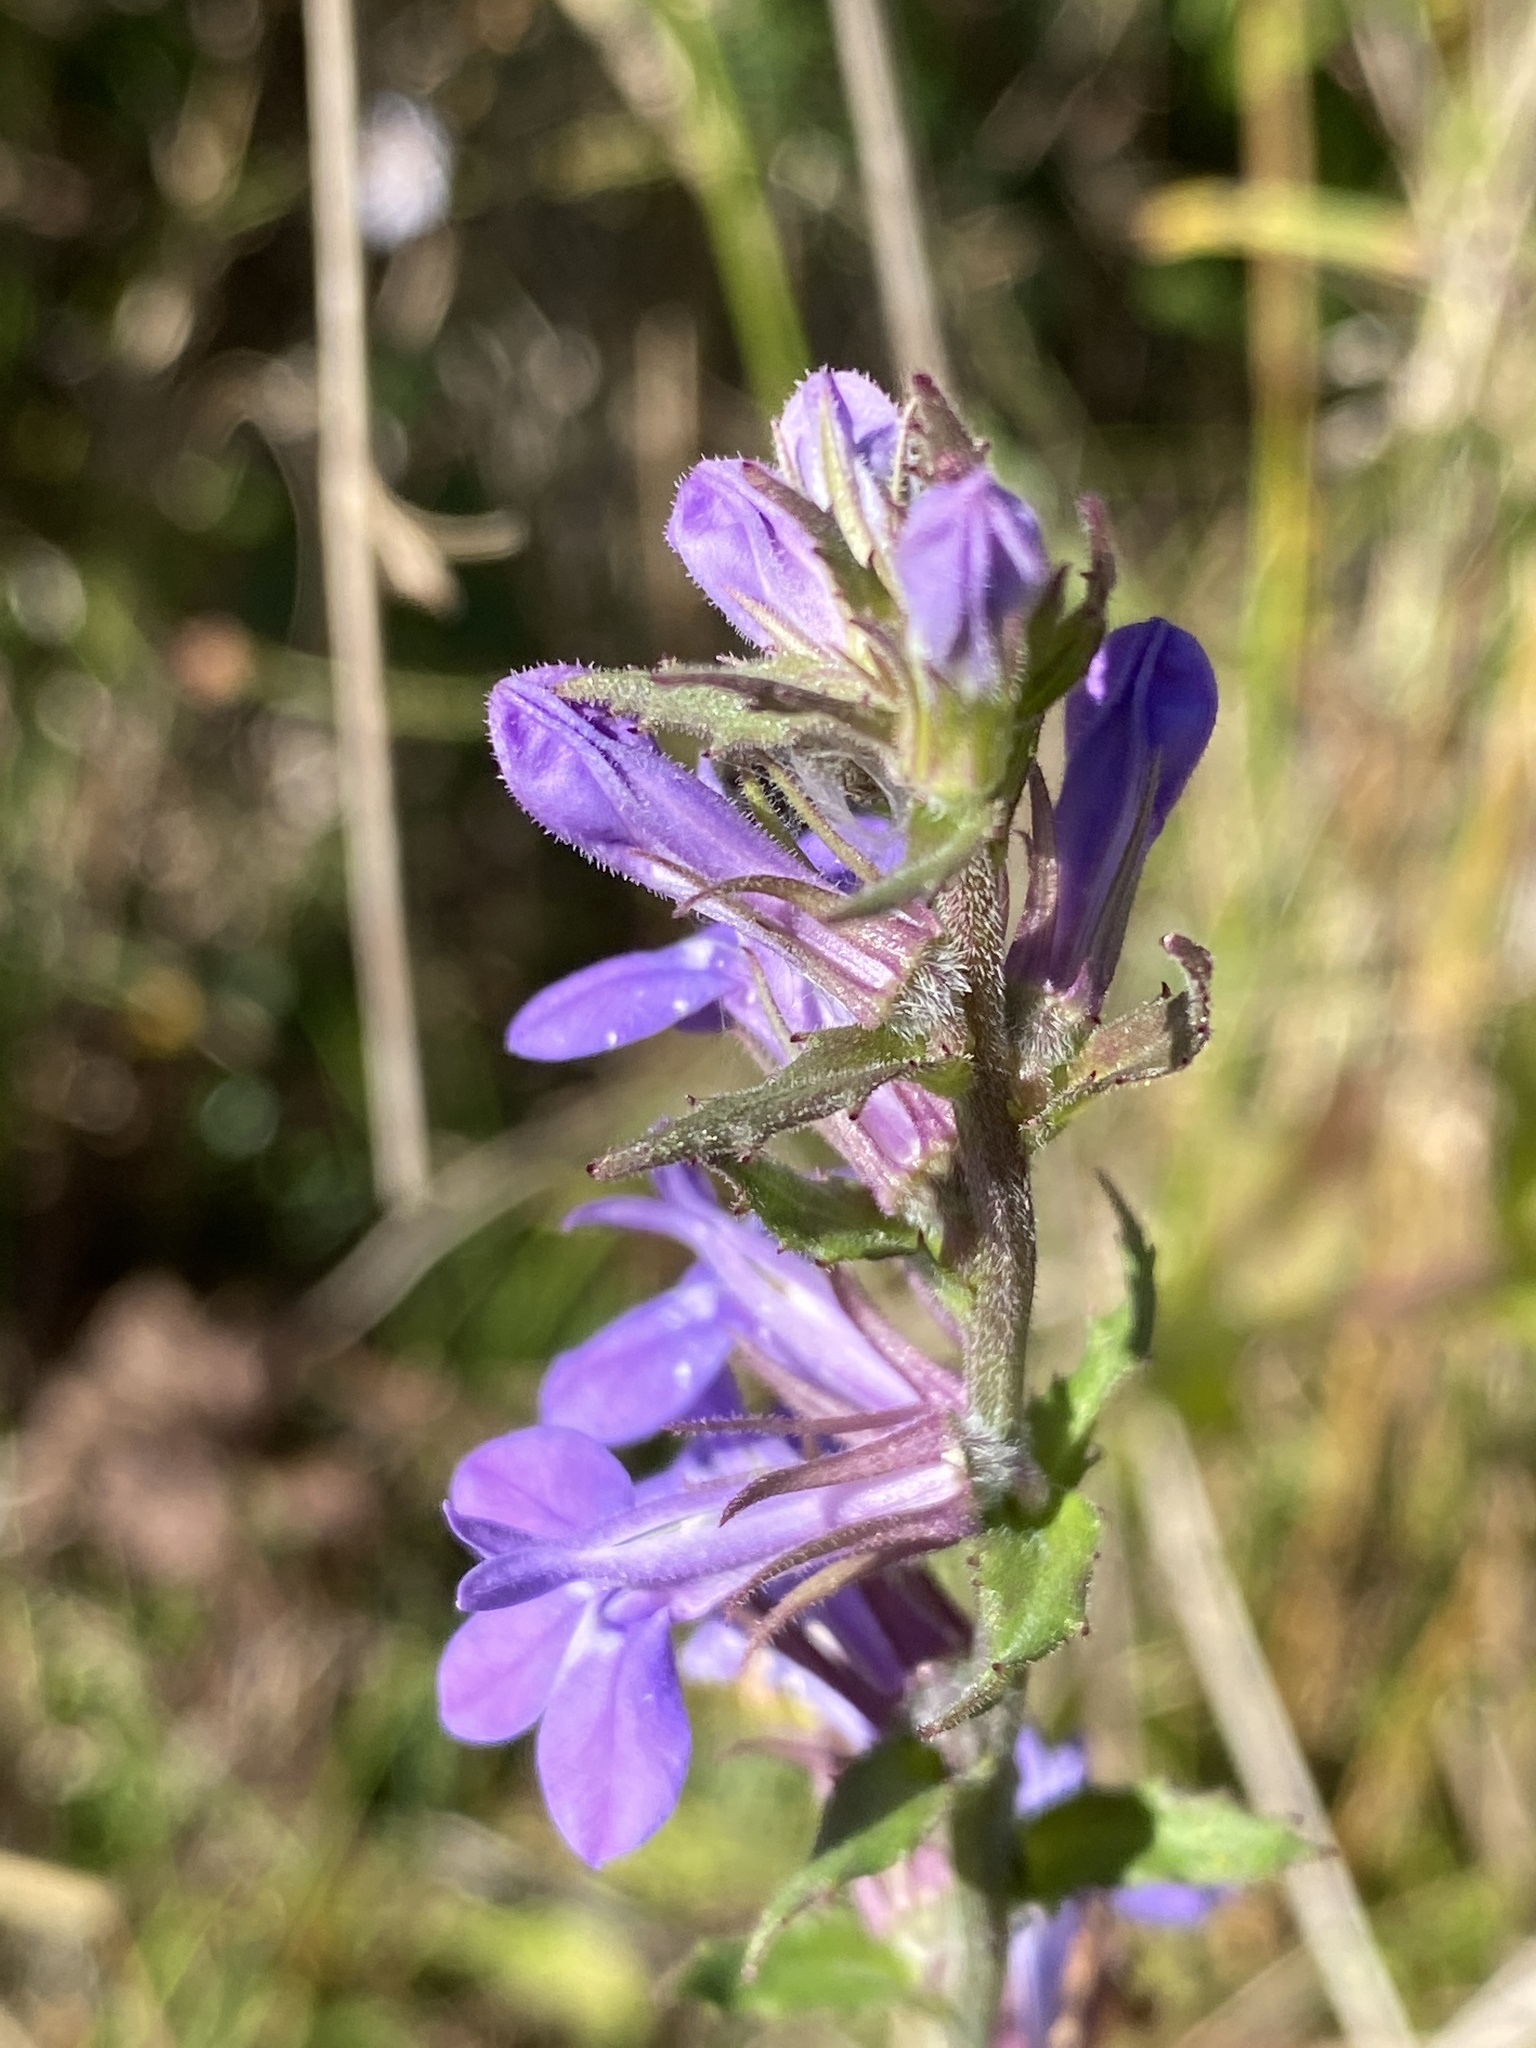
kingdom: Plantae
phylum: Tracheophyta
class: Magnoliopsida
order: Asterales
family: Campanulaceae
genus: Lobelia
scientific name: Lobelia puberula
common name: Purple dewdrop
